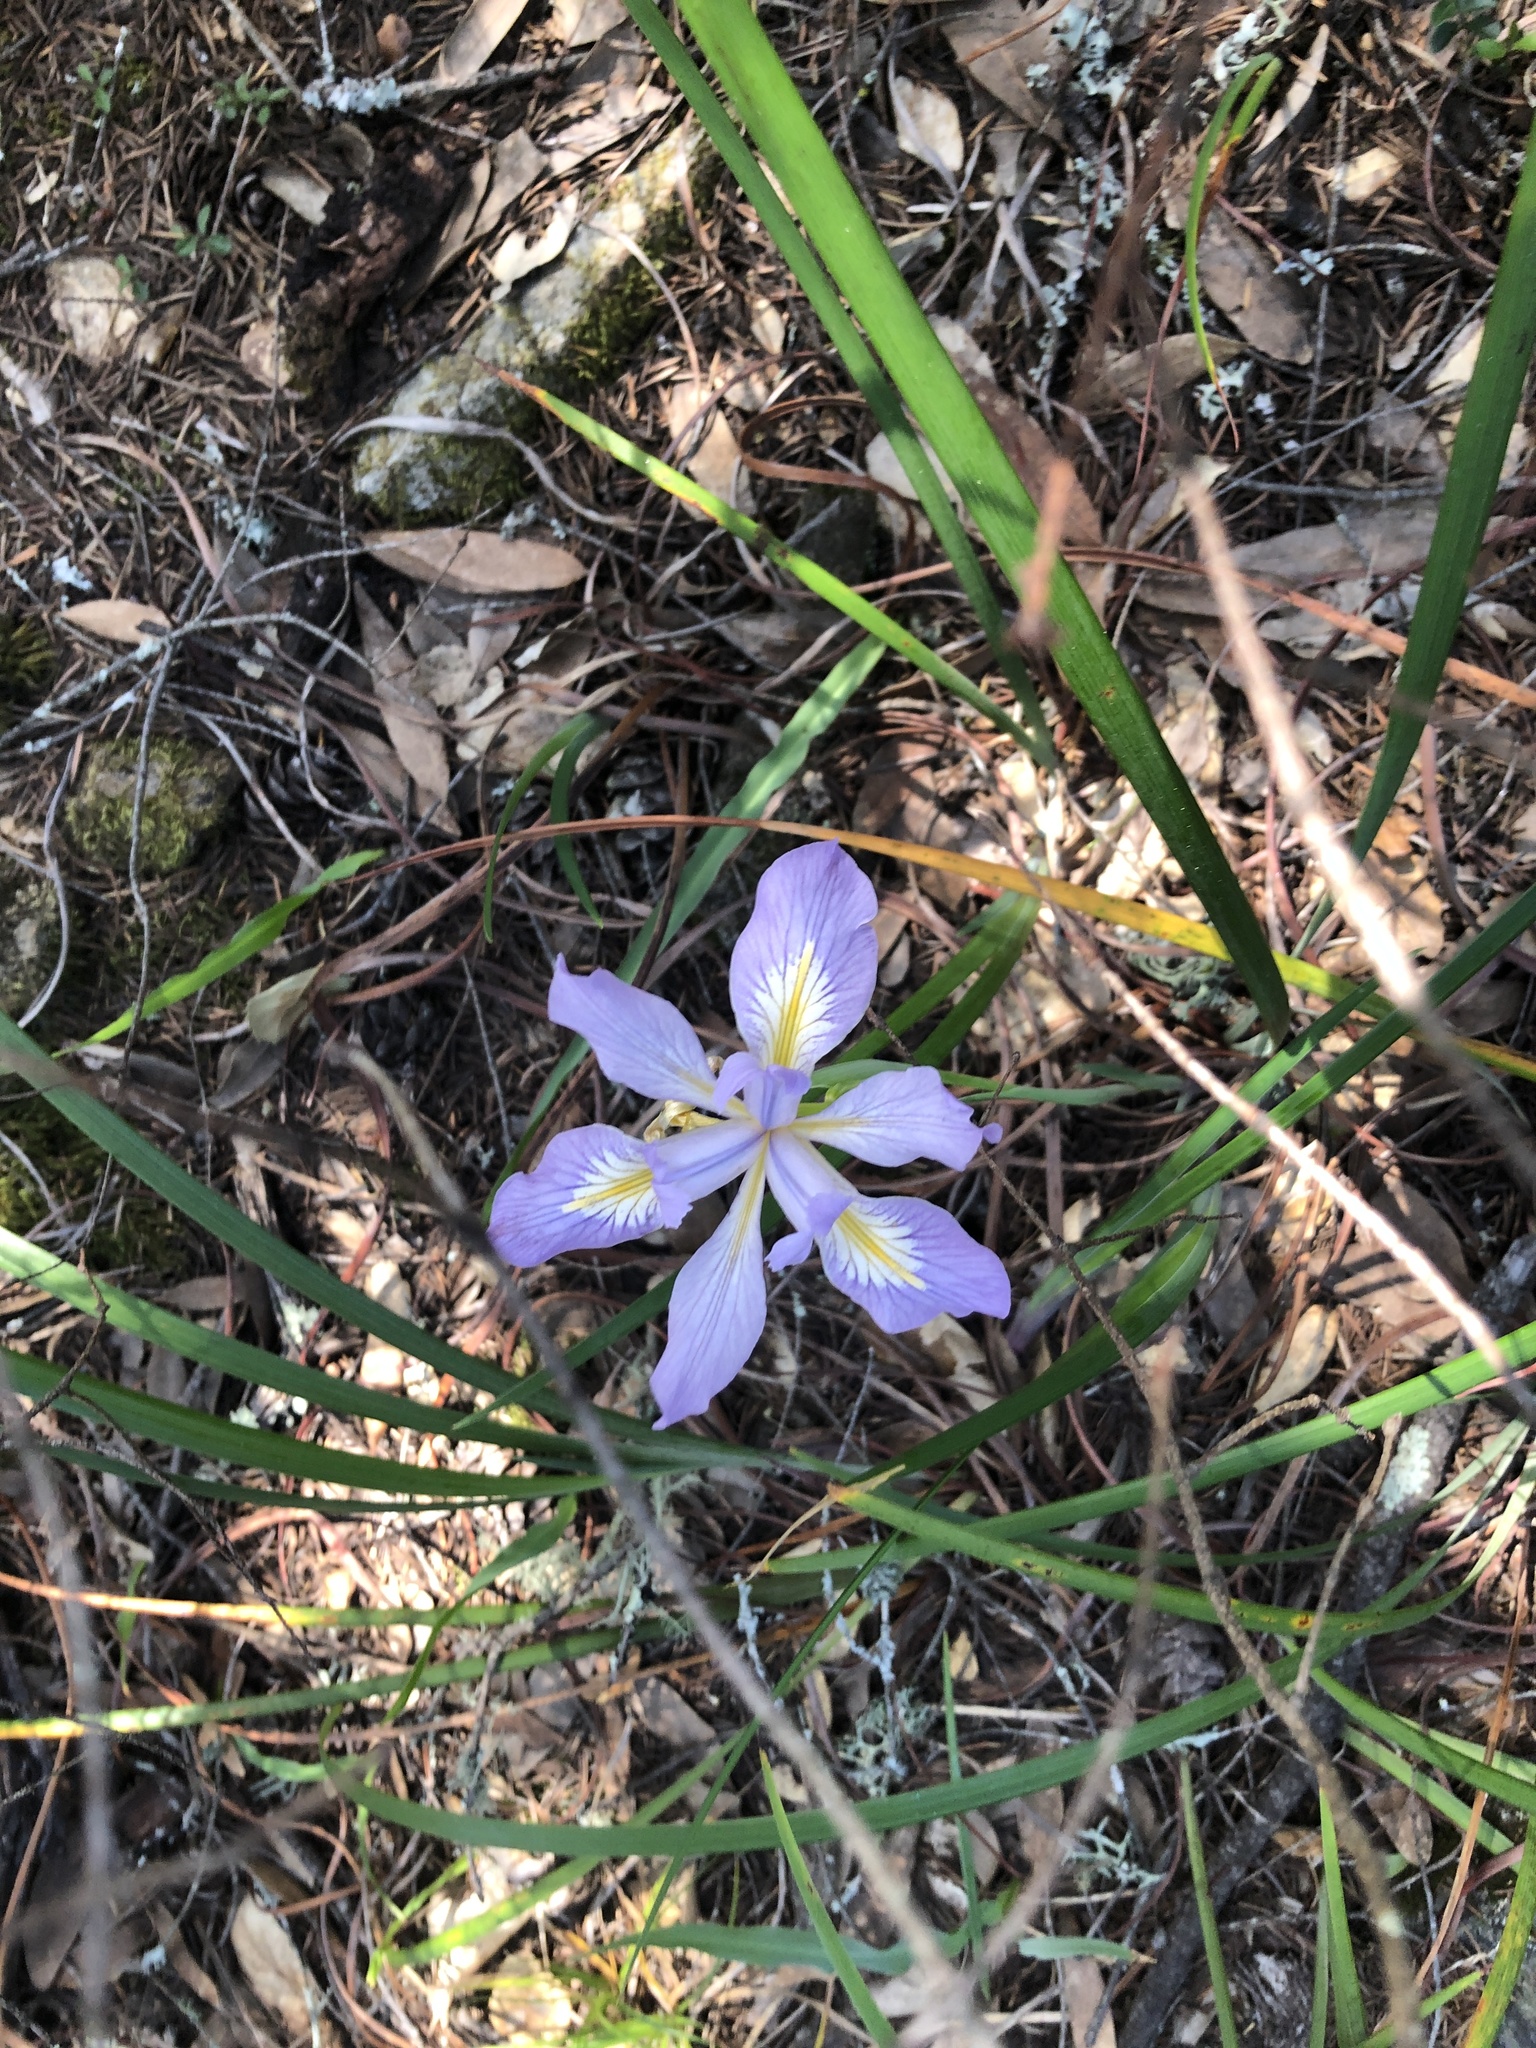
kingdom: Plantae
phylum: Tracheophyta
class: Liliopsida
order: Asparagales
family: Iridaceae
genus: Iris
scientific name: Iris douglasiana
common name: Marin iris
